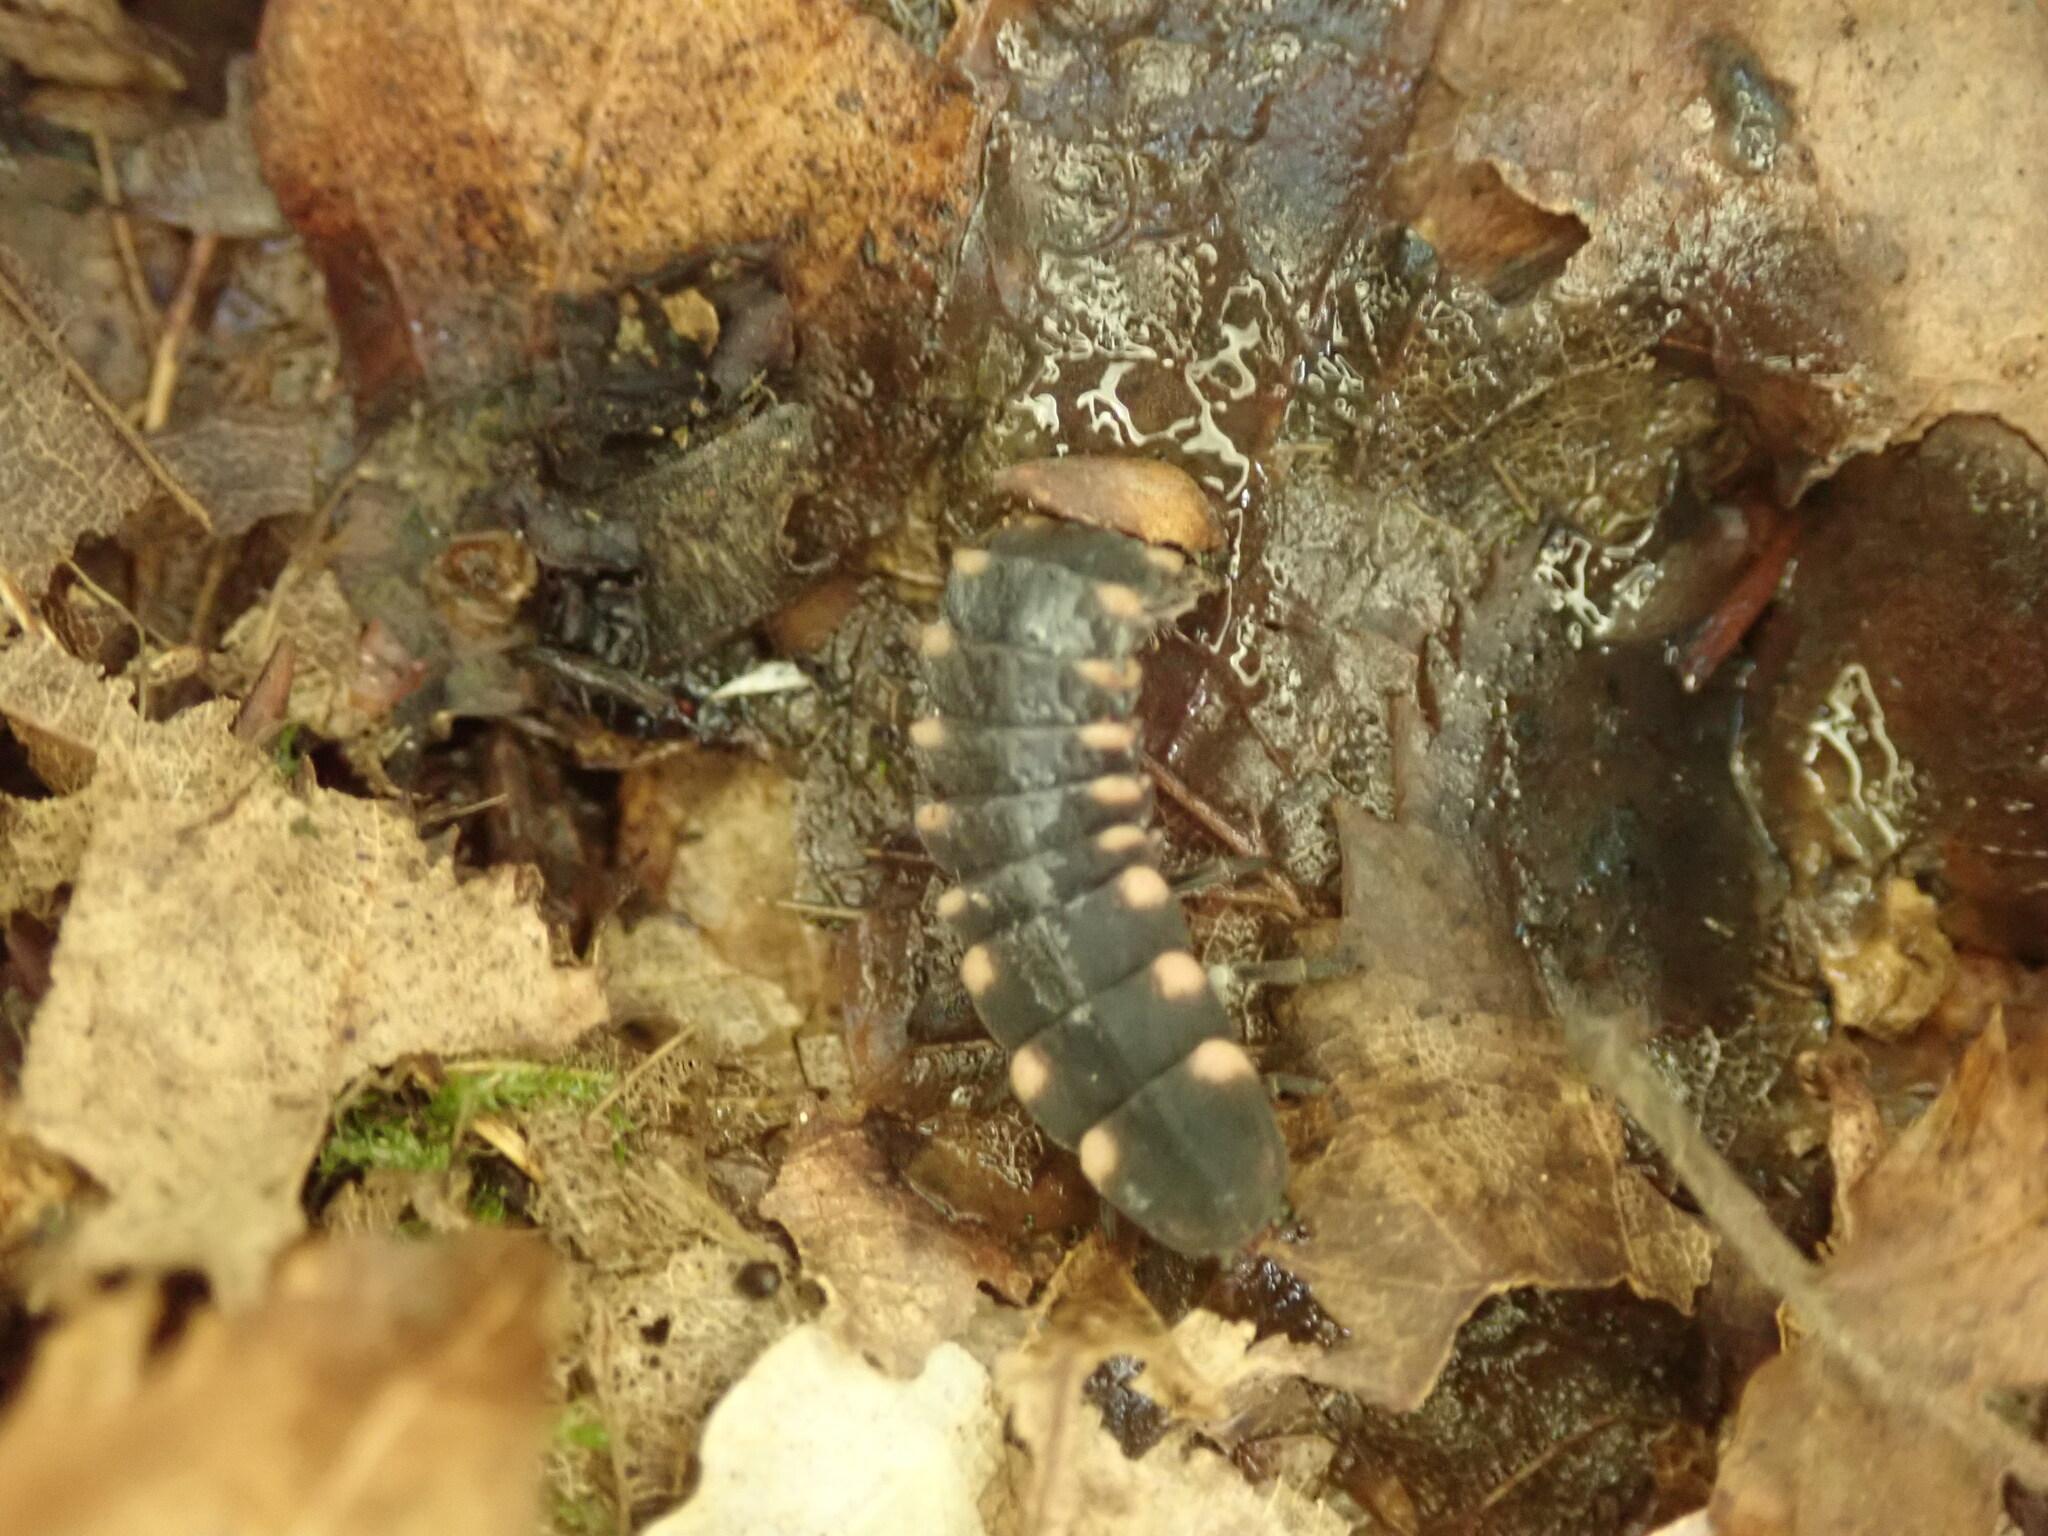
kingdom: Animalia
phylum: Arthropoda
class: Insecta
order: Coleoptera
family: Lampyridae
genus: Lampyris
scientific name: Lampyris noctiluca
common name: Glow-worm
